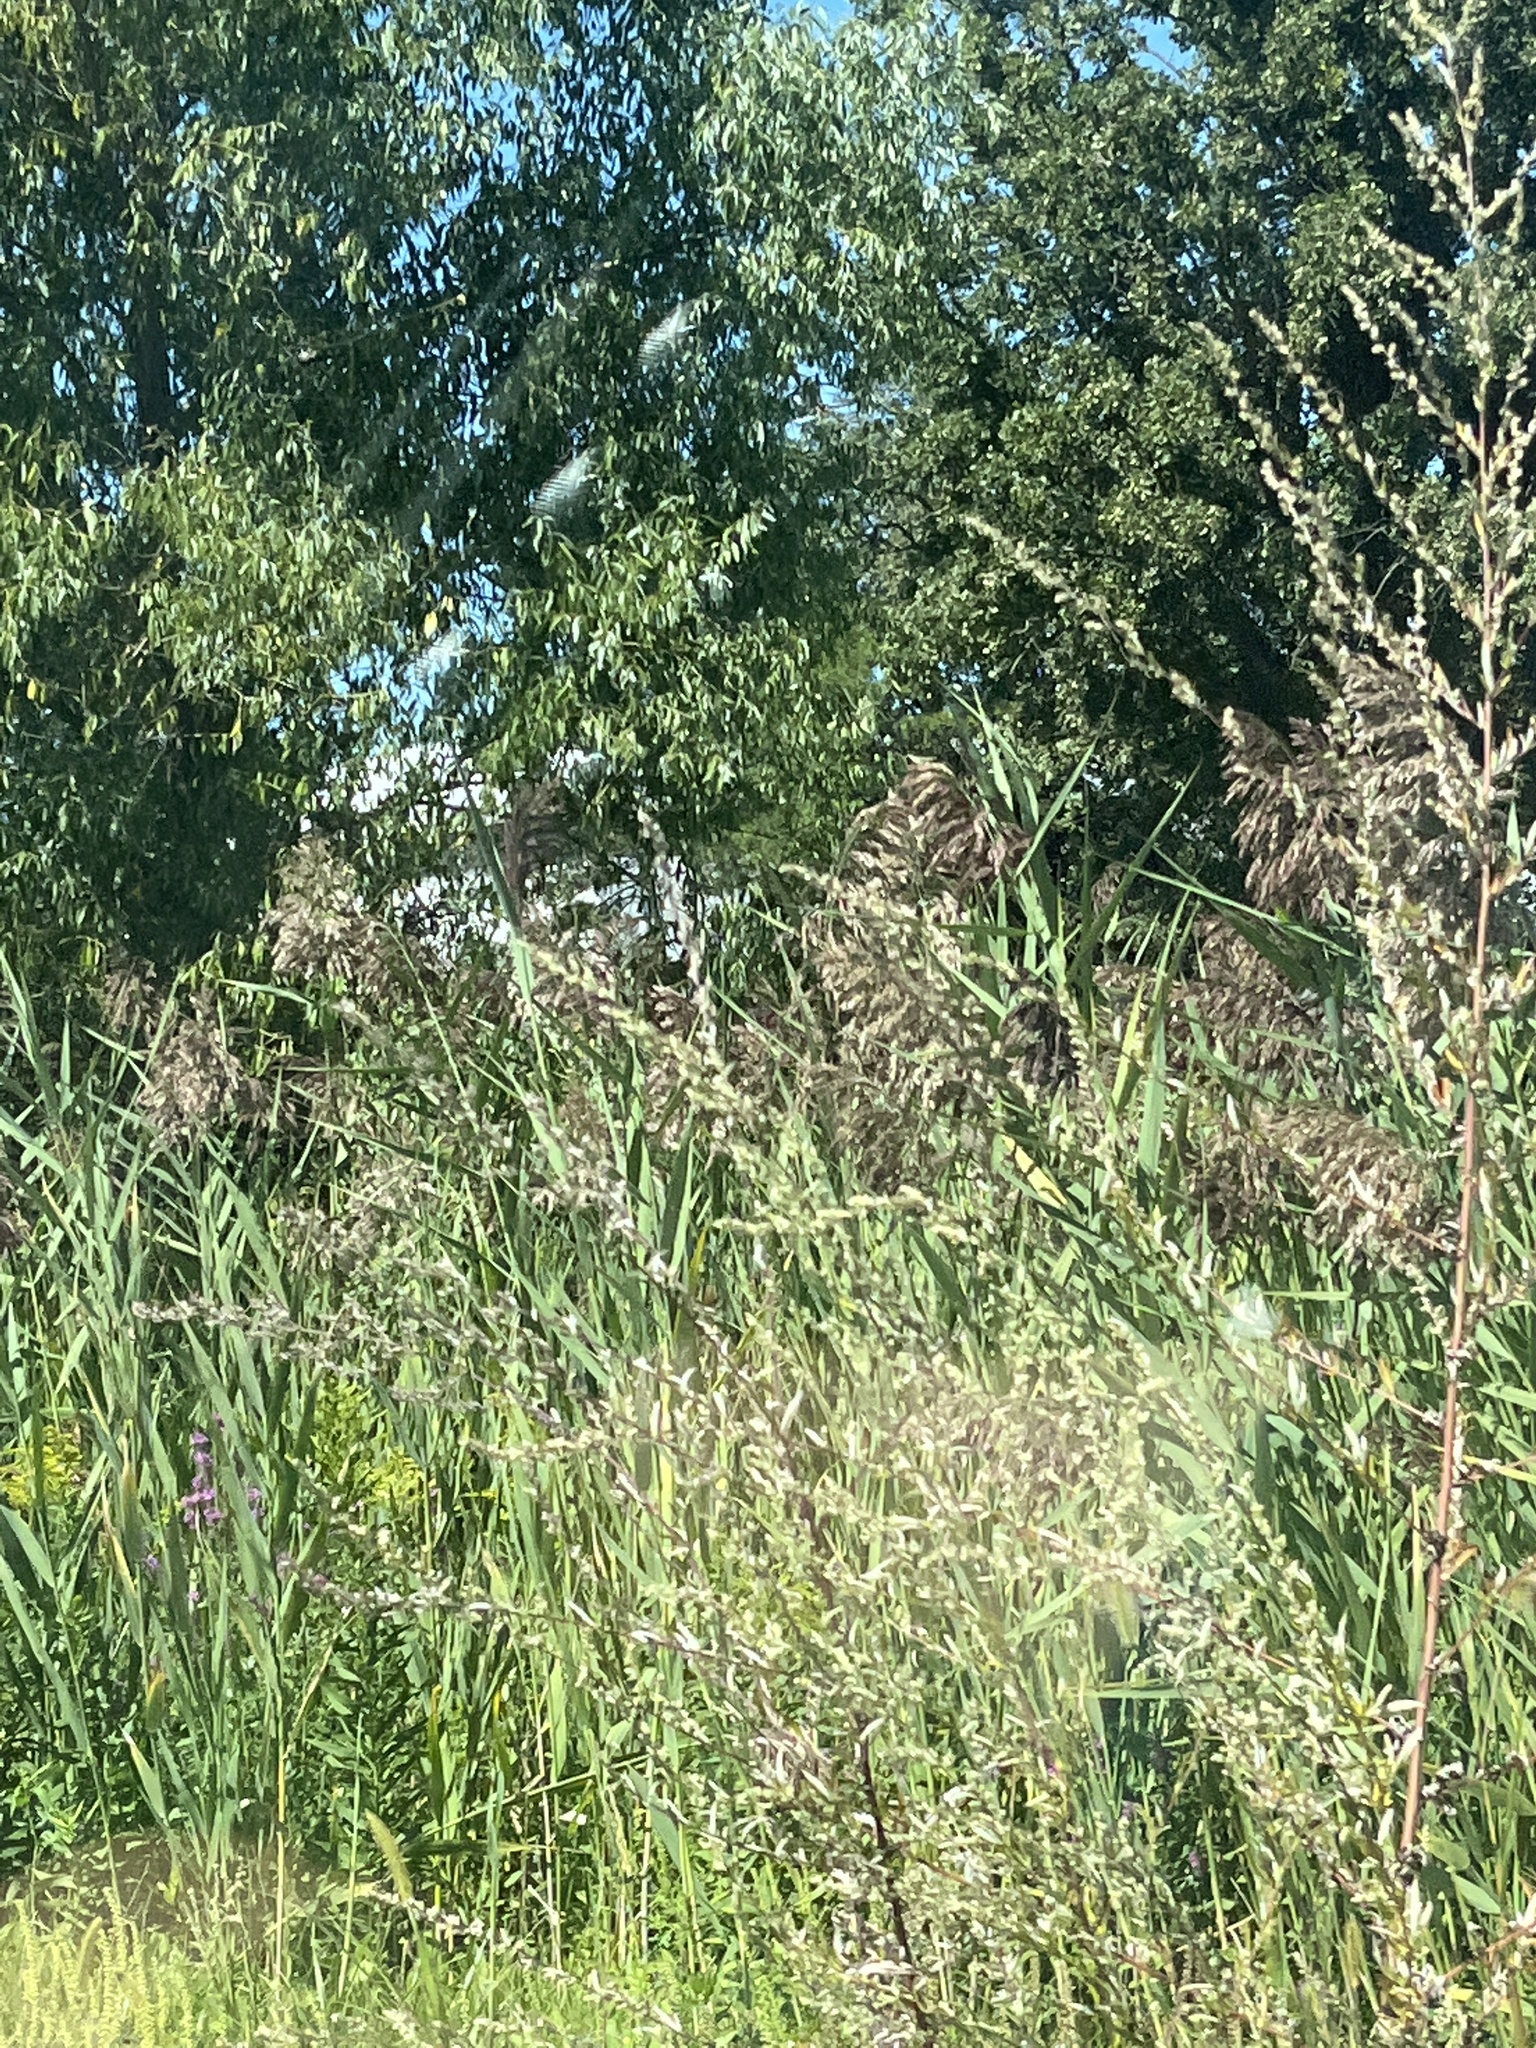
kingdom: Plantae
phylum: Tracheophyta
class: Liliopsida
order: Poales
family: Poaceae
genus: Phragmites
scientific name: Phragmites australis
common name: Common reed
